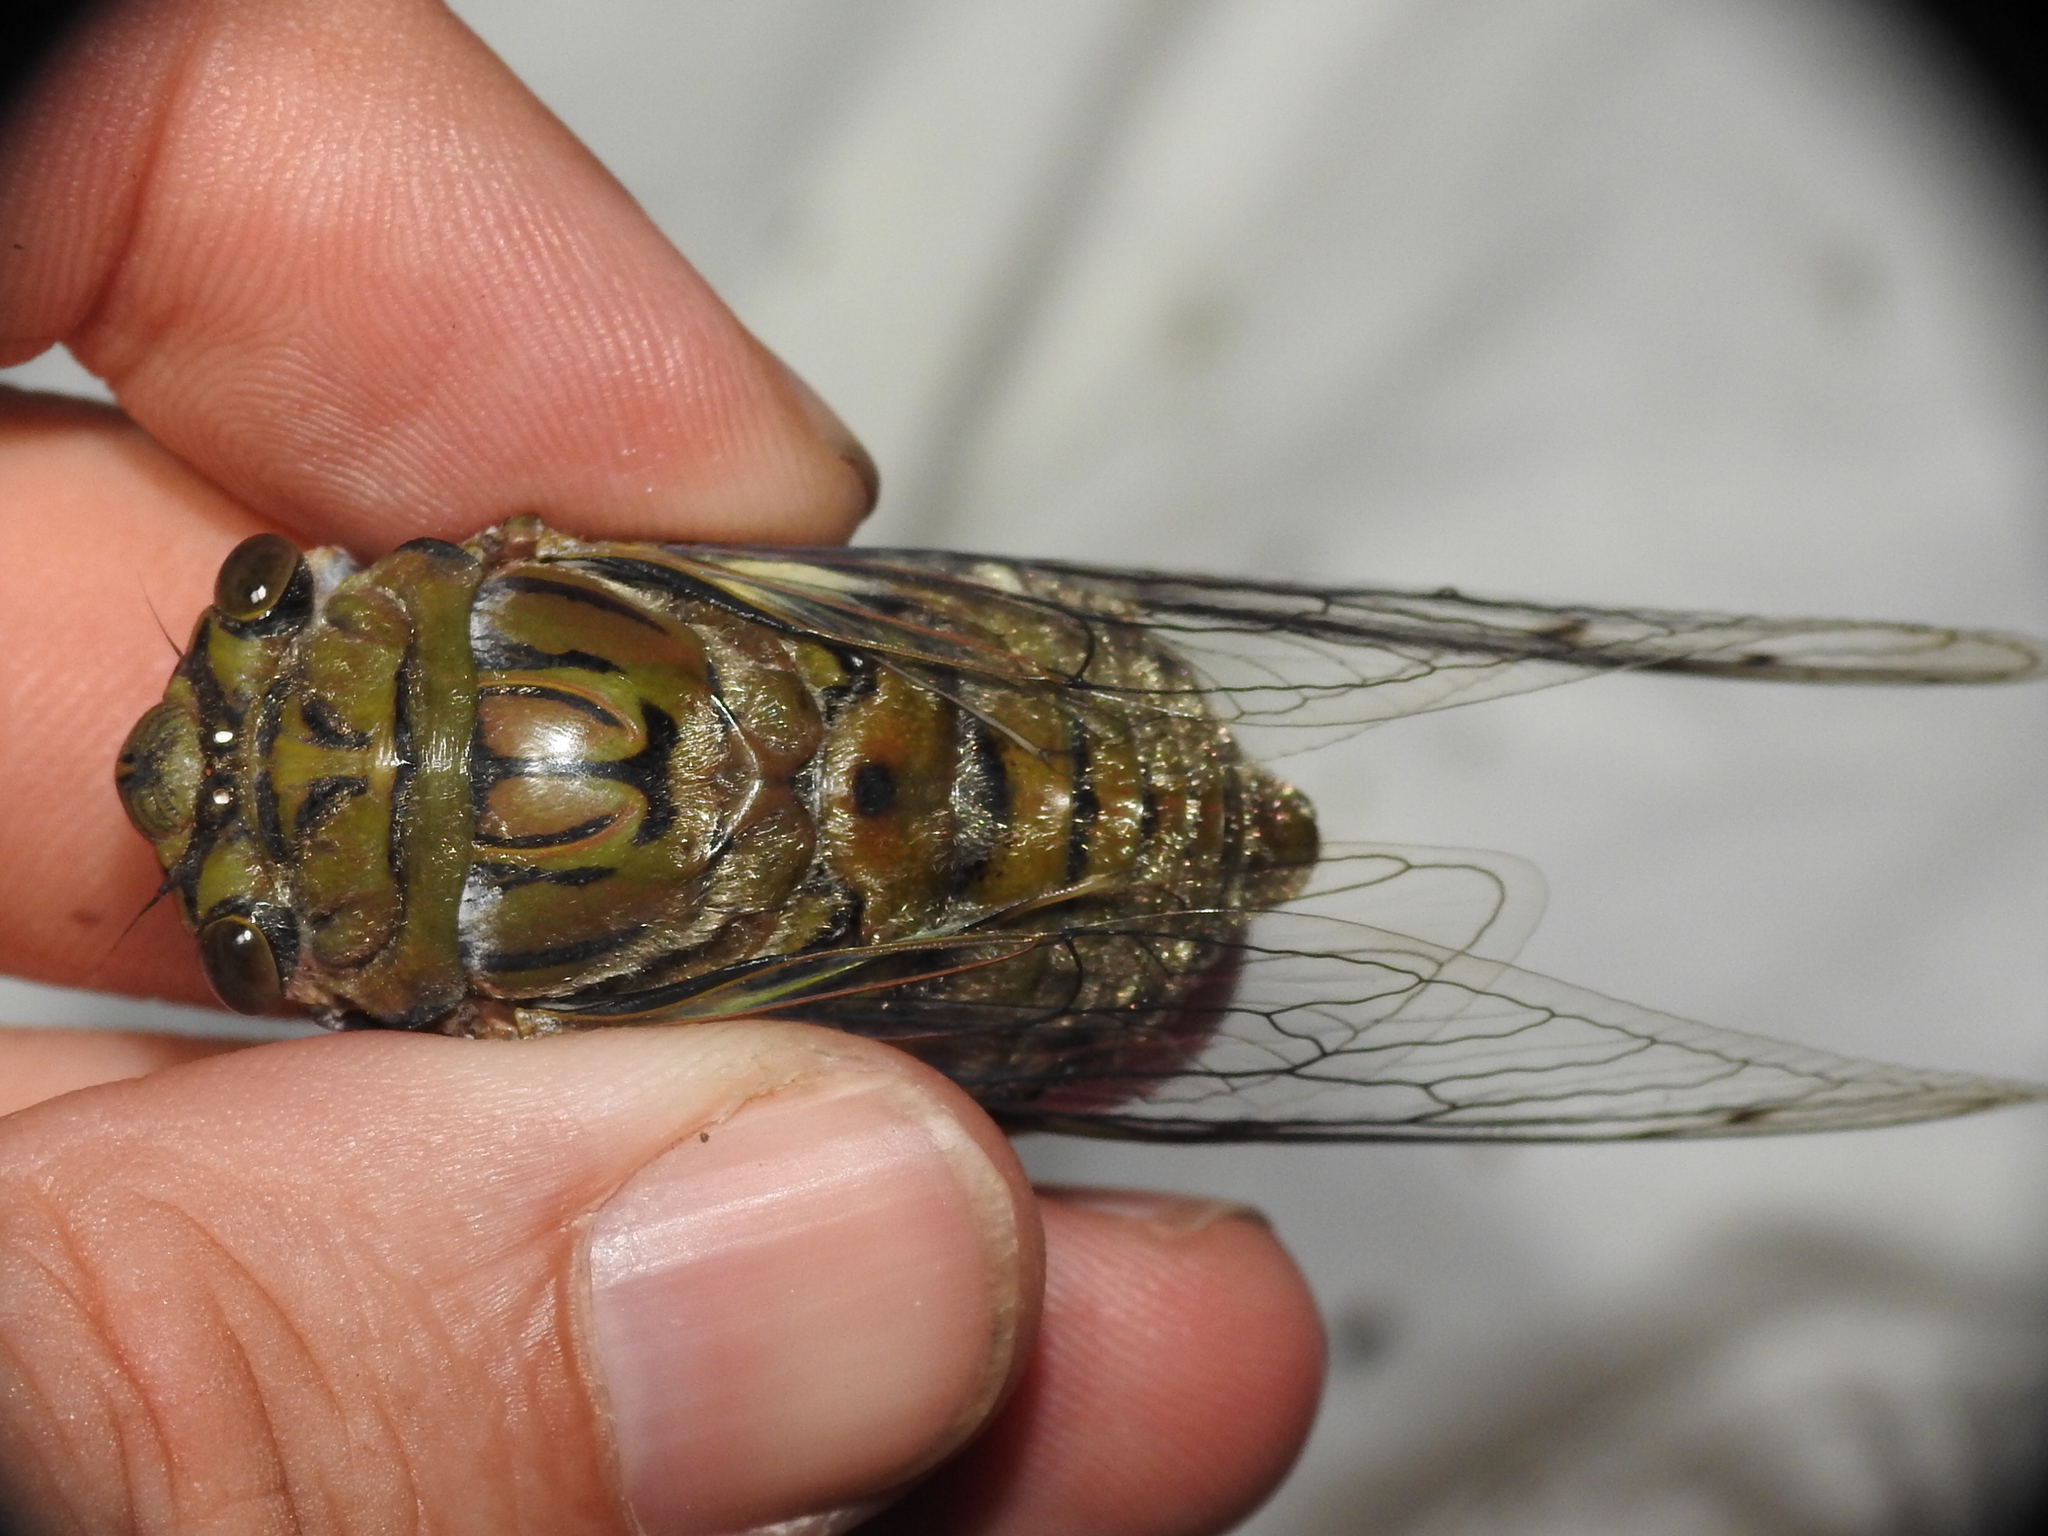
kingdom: Animalia
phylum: Arthropoda
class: Insecta
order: Hemiptera
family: Cicadidae
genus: Quesada
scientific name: Quesada gigas
